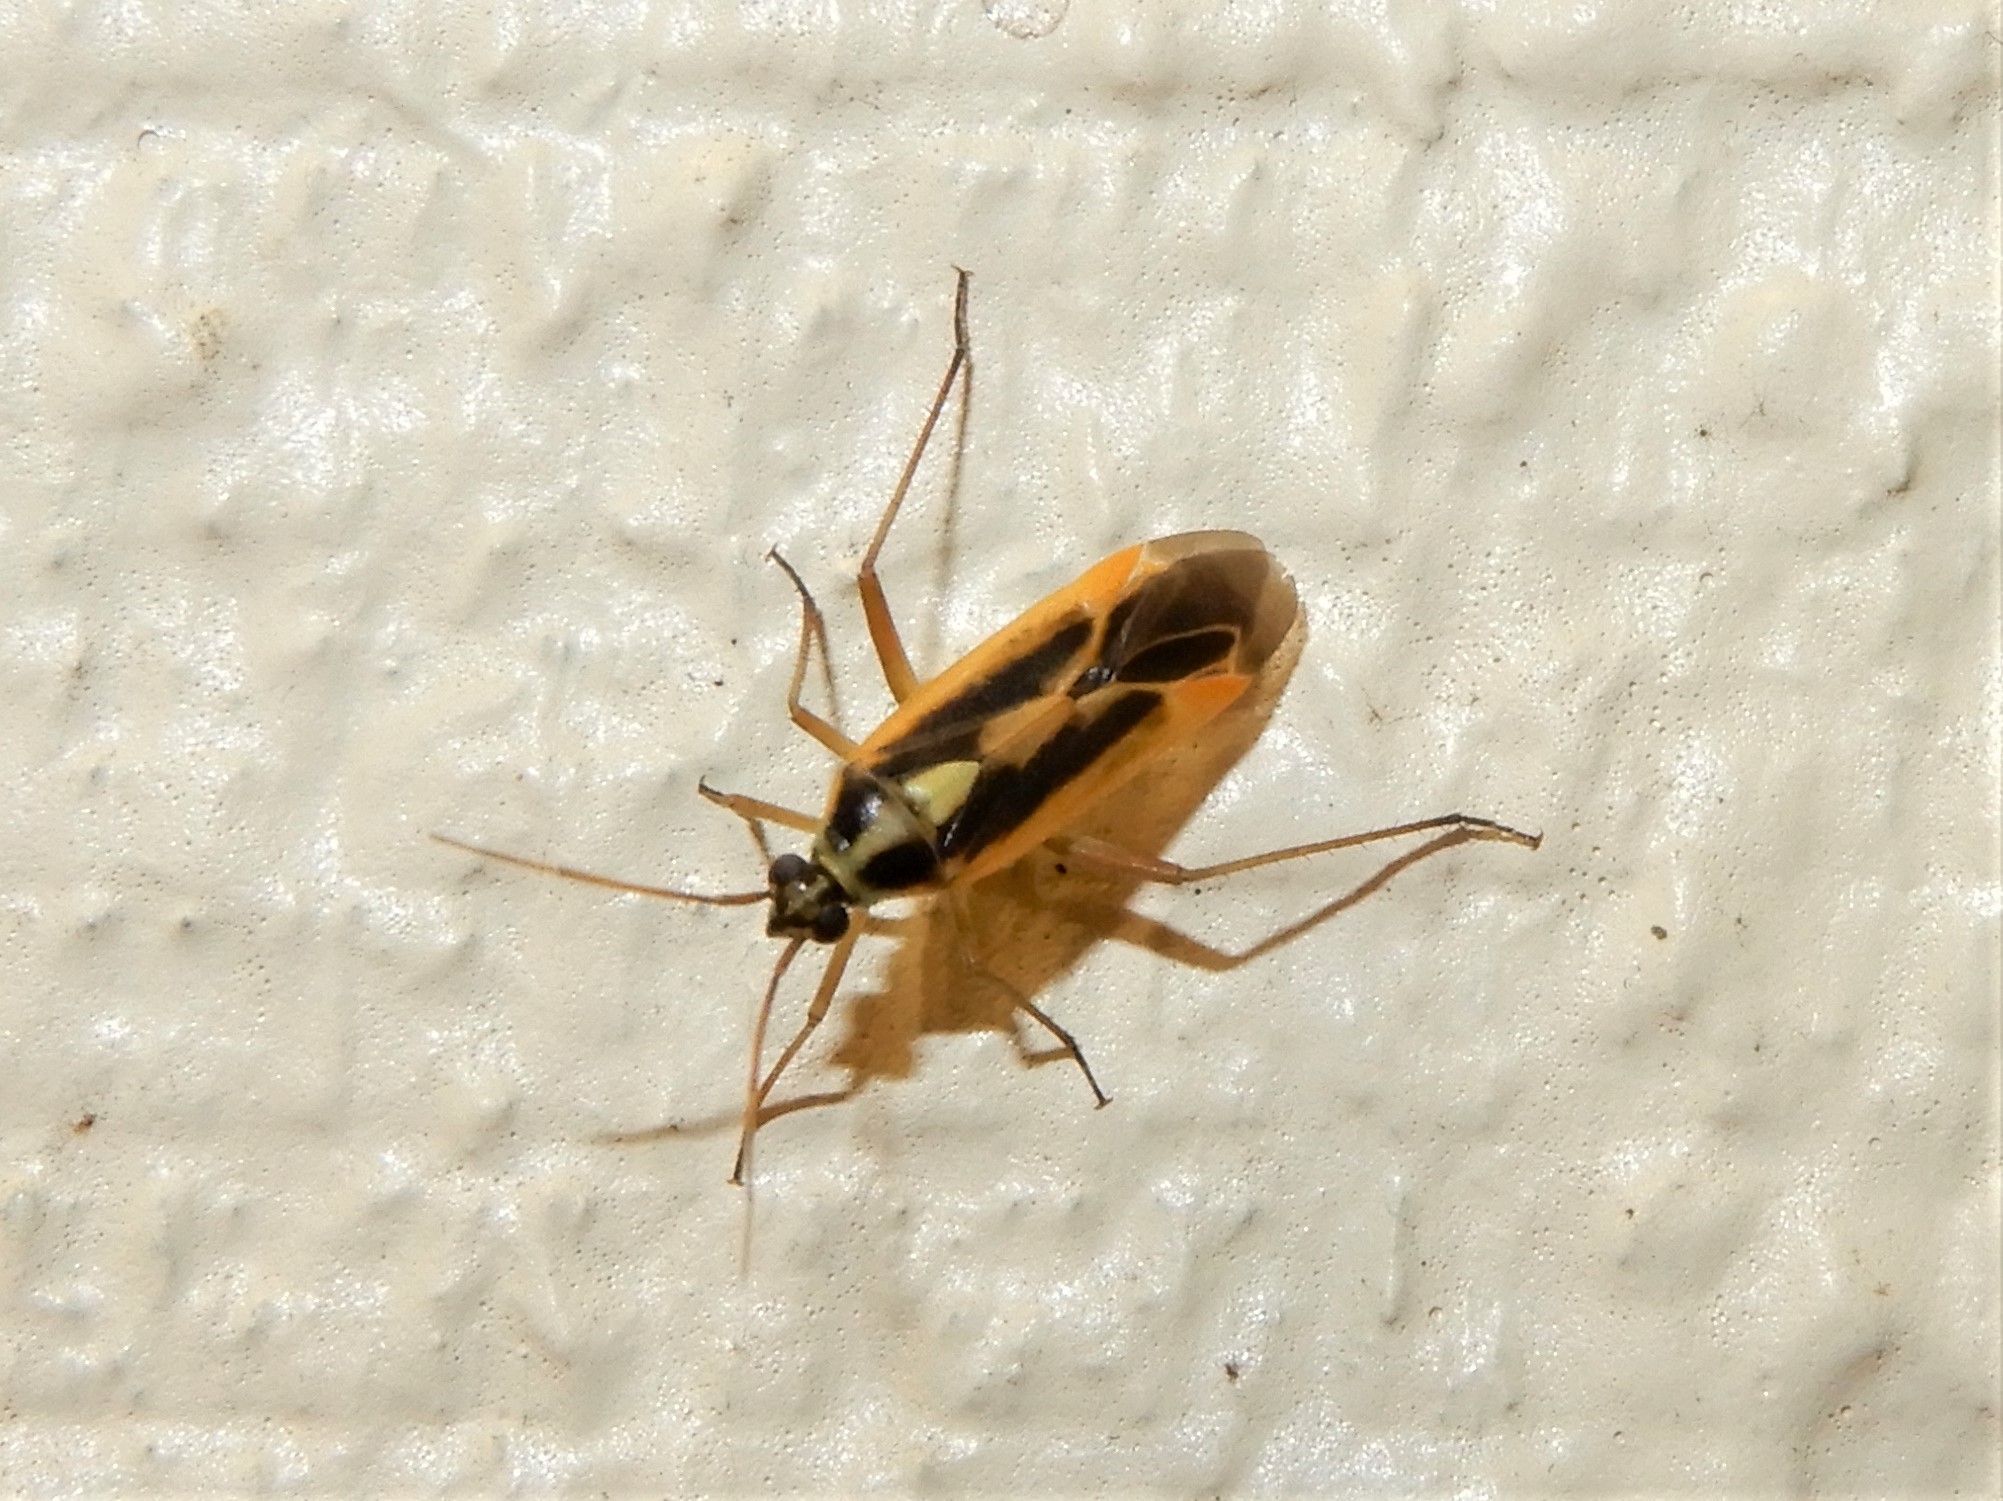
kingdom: Animalia
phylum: Arthropoda
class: Insecta
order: Hemiptera
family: Miridae
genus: Stenotus
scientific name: Stenotus binotatus
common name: Plant bug
